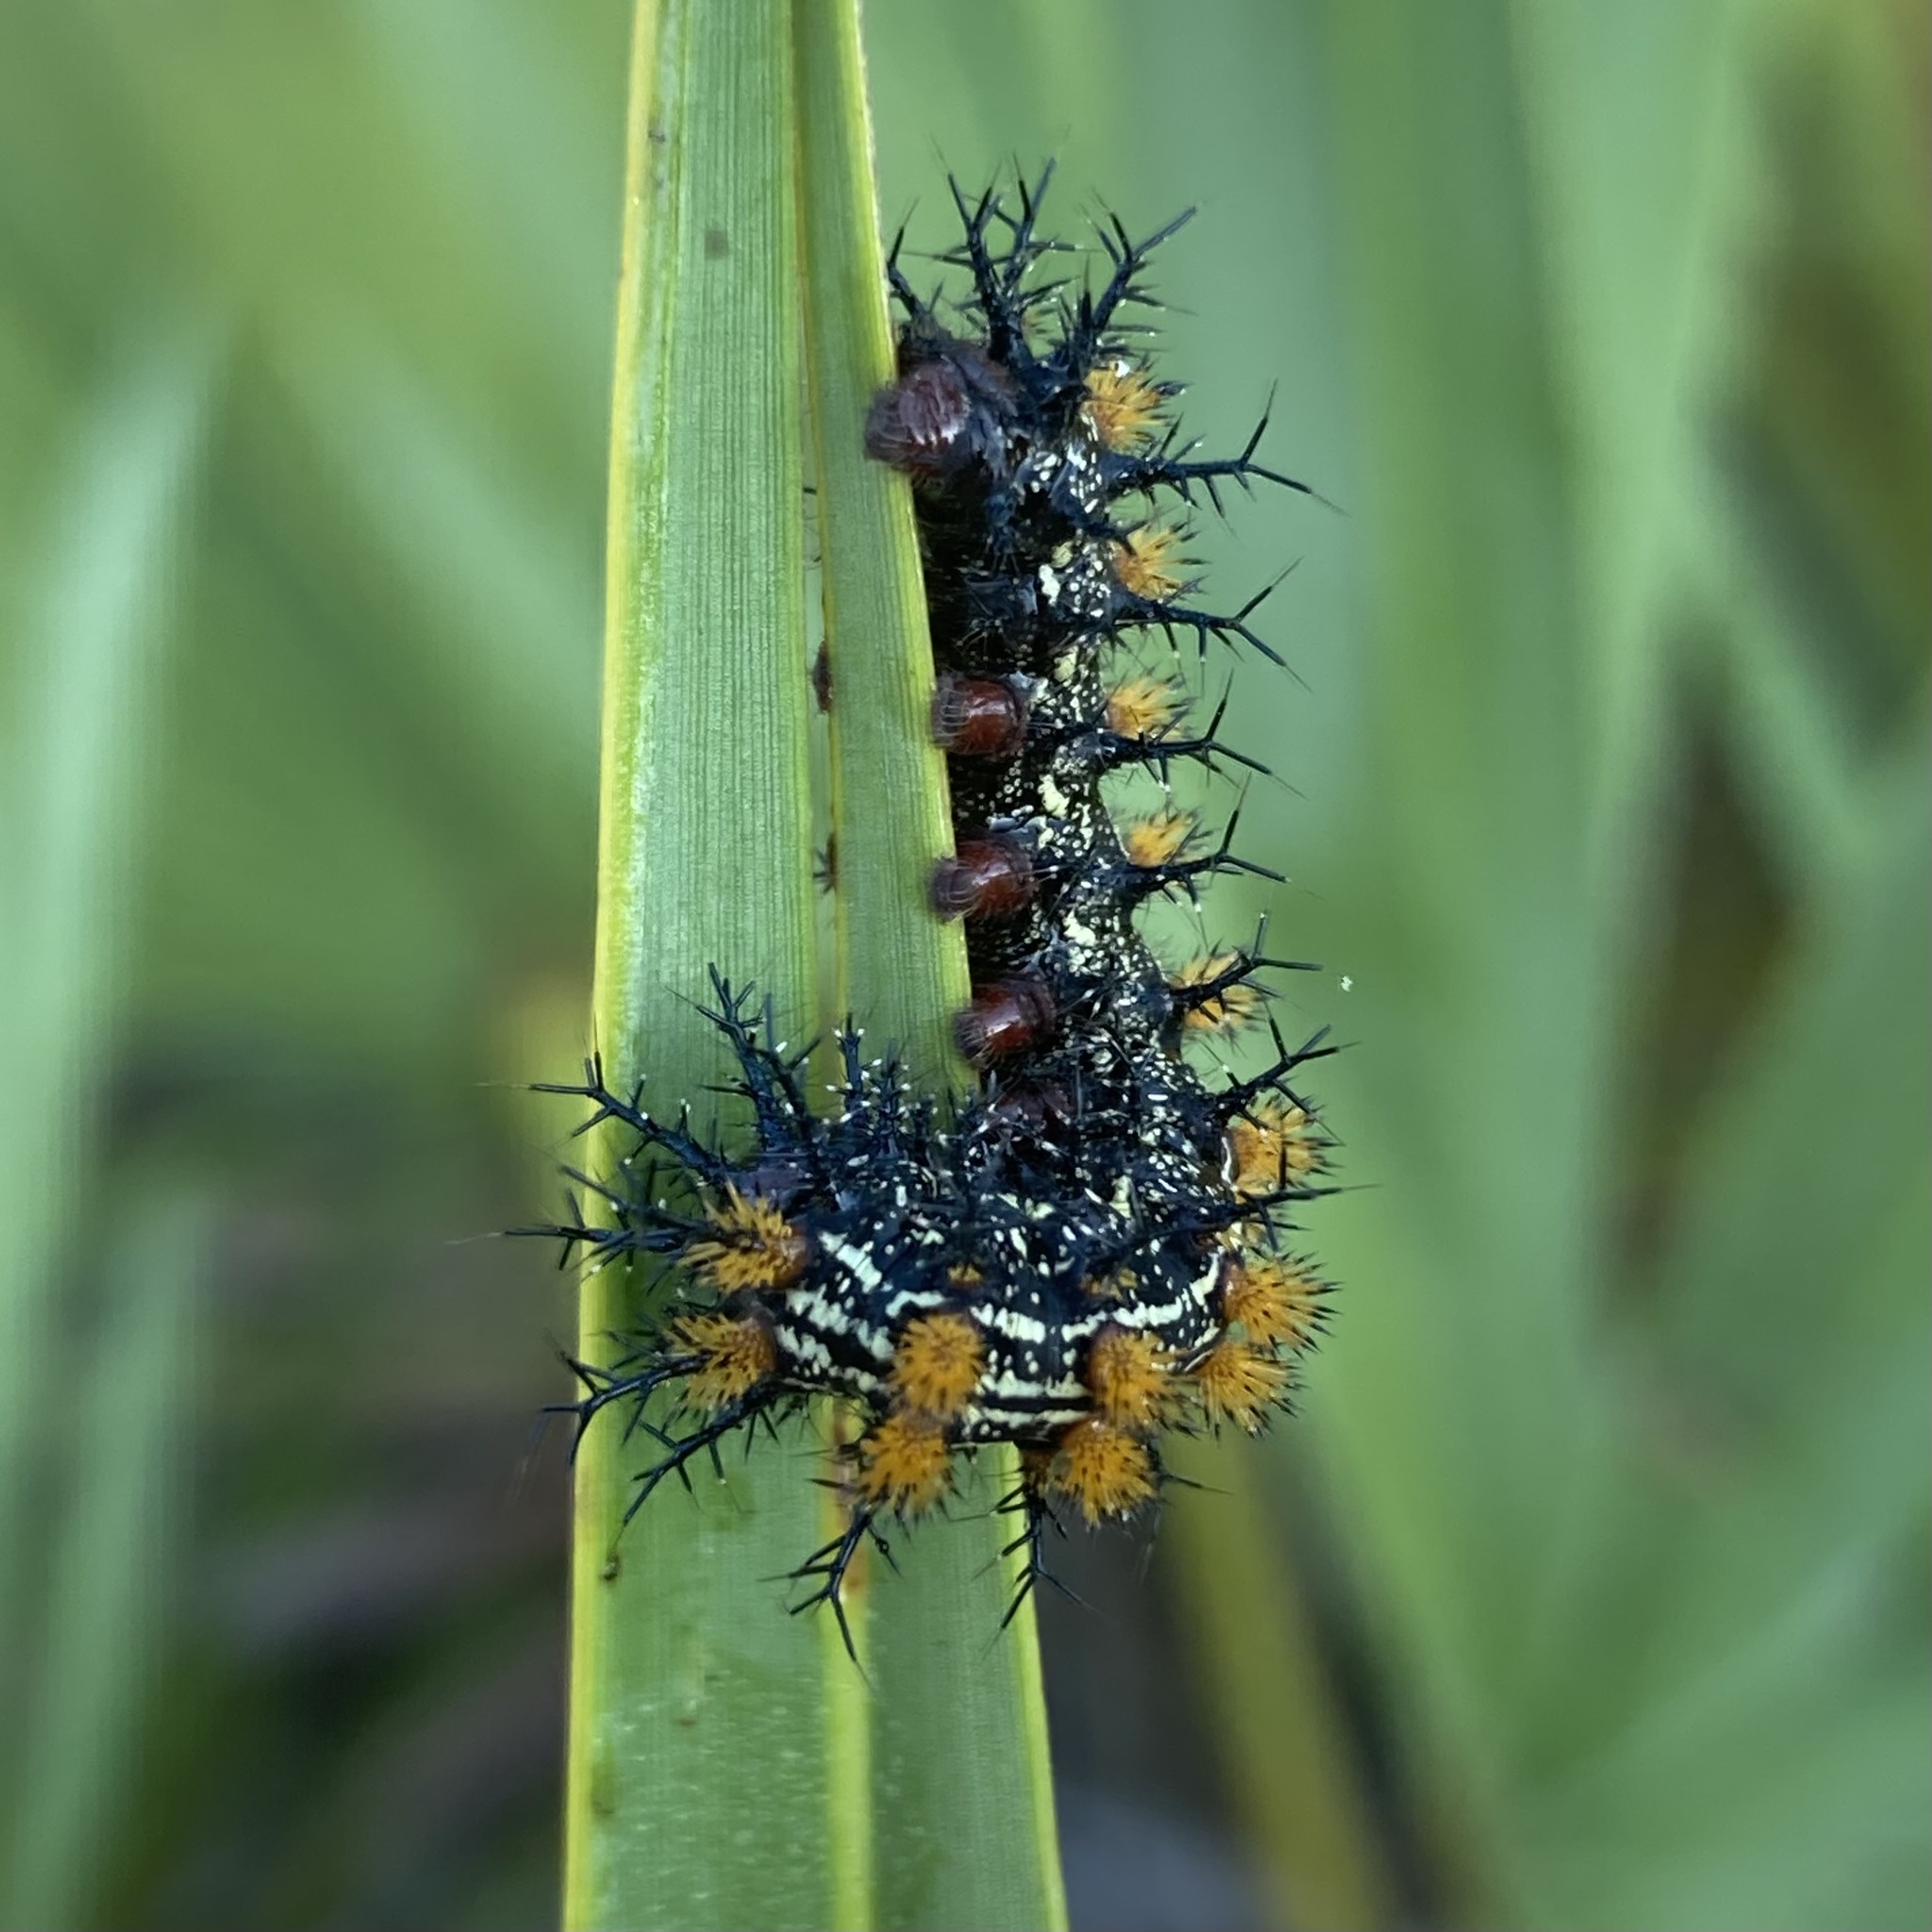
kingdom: Animalia
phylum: Arthropoda
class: Insecta
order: Lepidoptera
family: Saturniidae
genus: Hemileuca
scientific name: Hemileuca maia
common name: Eastern buckmoth
